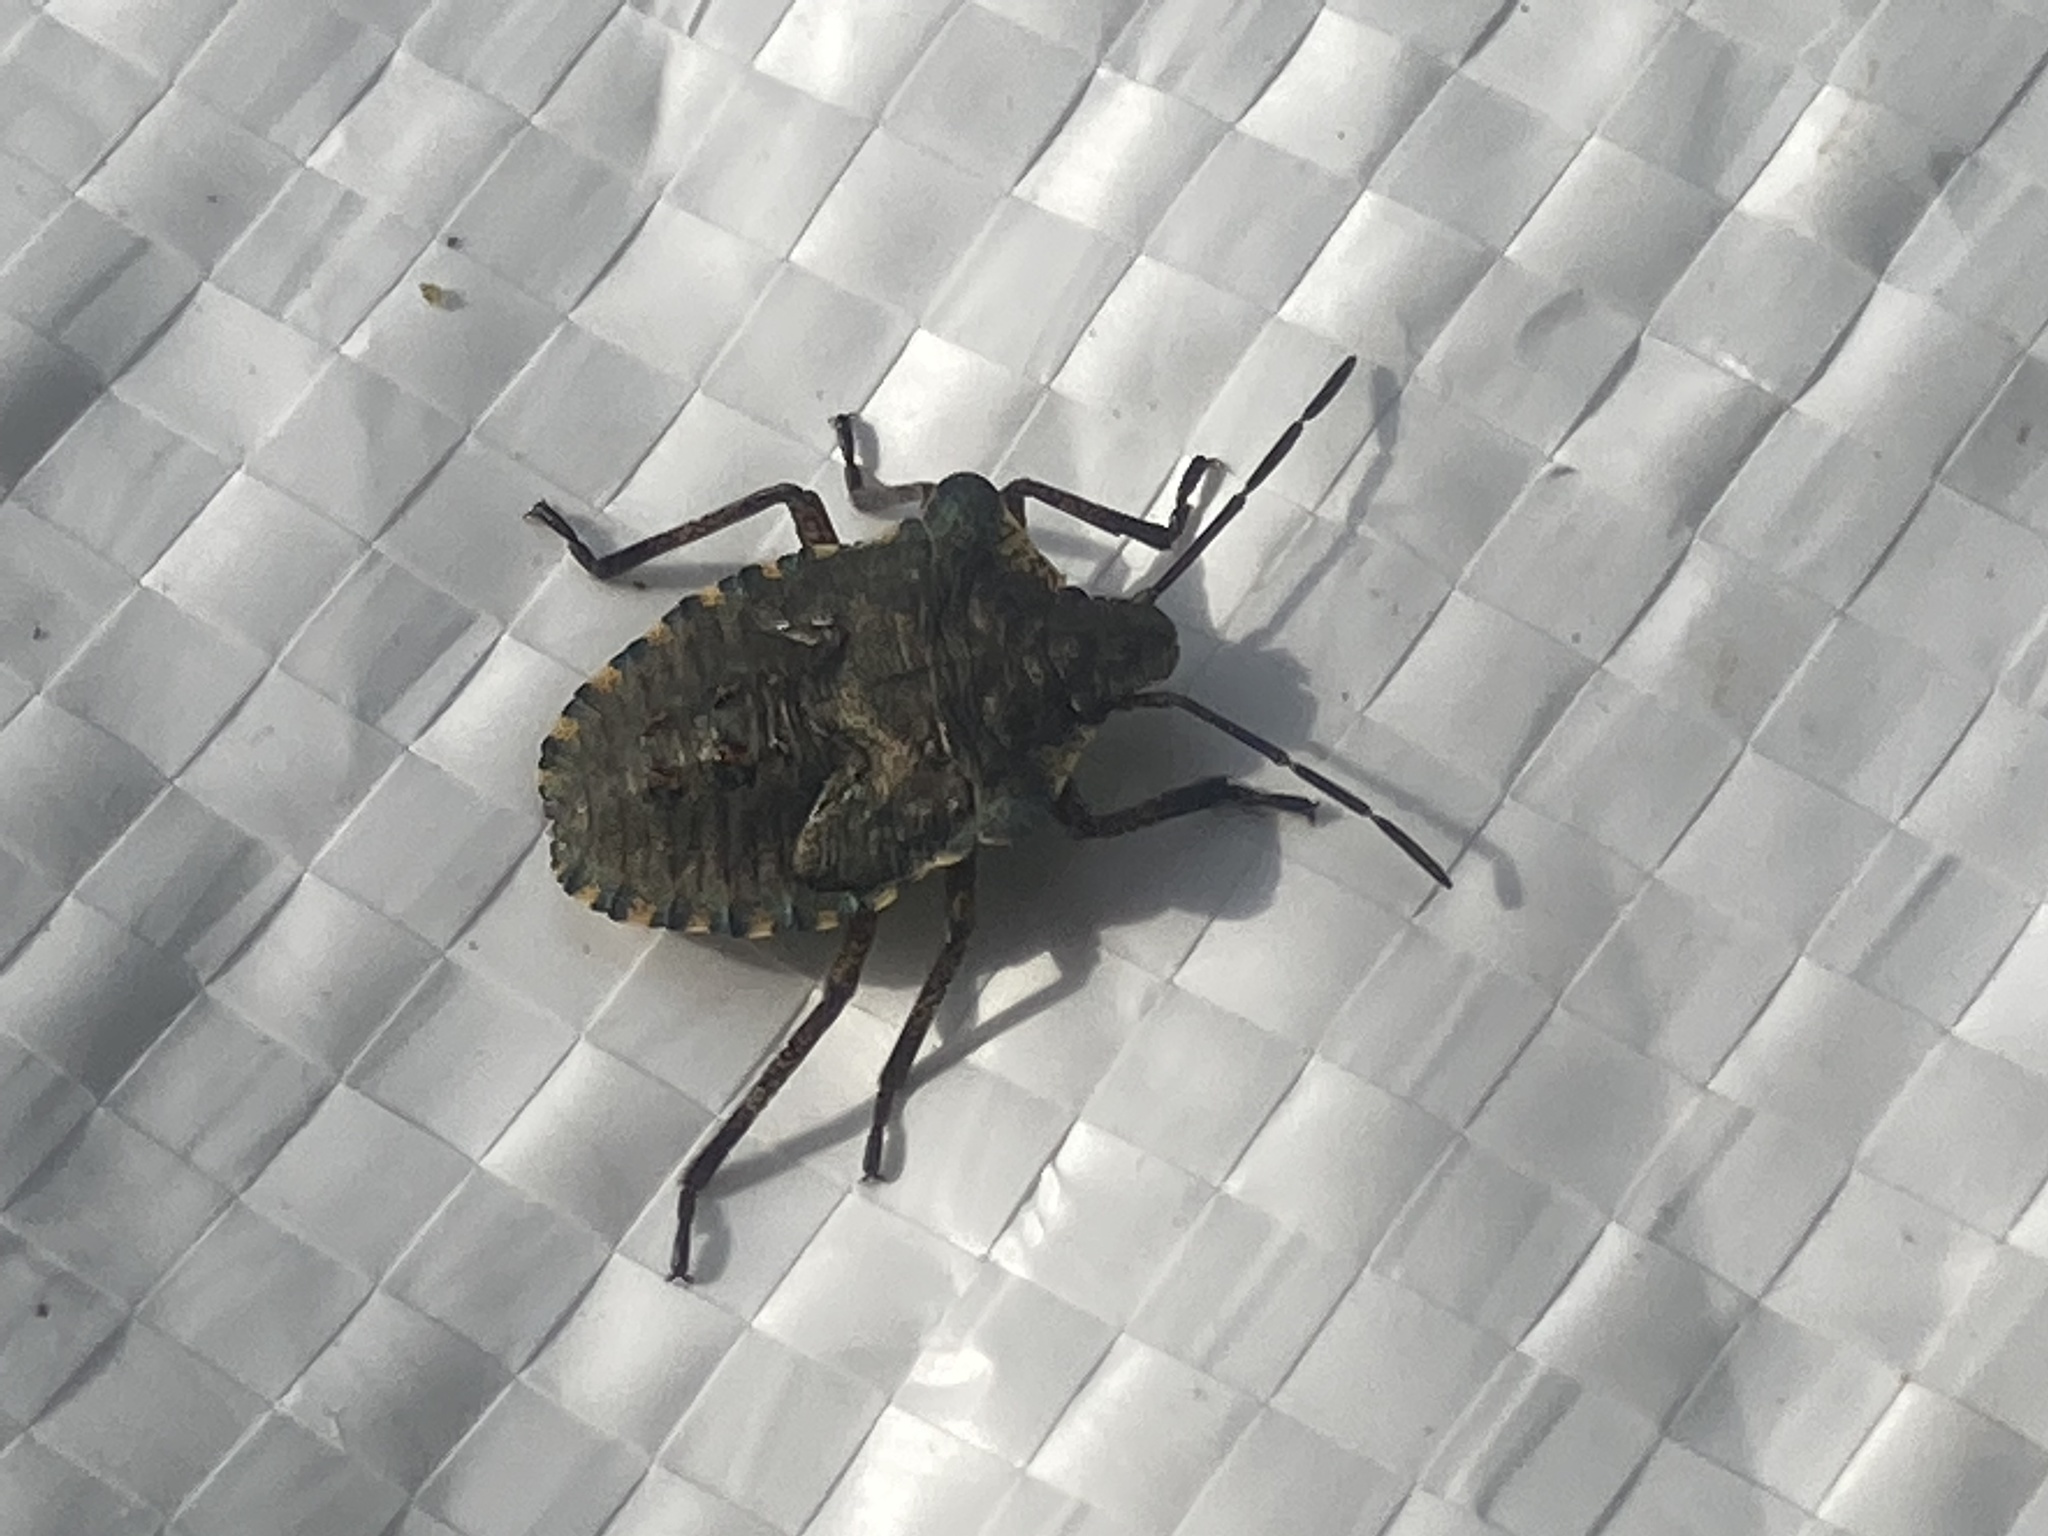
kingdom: Animalia
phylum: Arthropoda
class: Insecta
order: Hemiptera
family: Pentatomidae
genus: Pentatoma
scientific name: Pentatoma rufipes
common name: Forest bug
